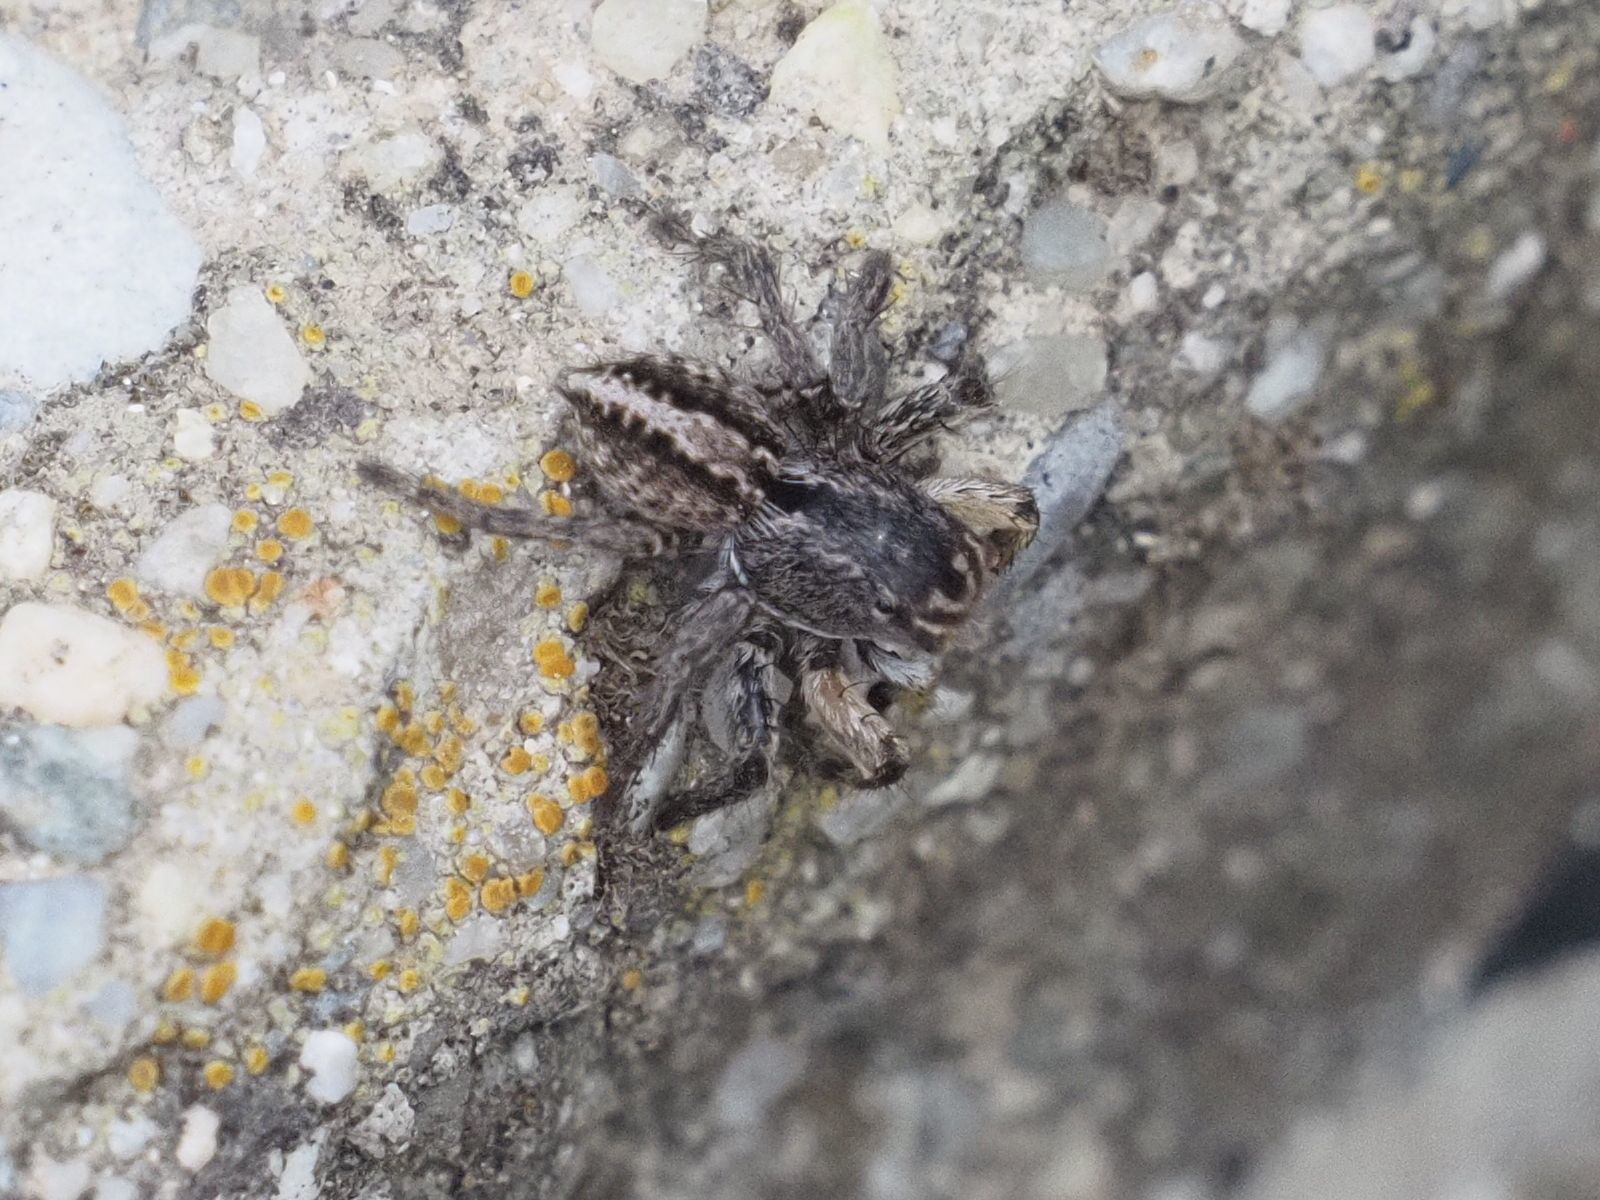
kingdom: Animalia
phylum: Arthropoda
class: Arachnida
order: Araneae
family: Salticidae
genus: Aelurillus
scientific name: Aelurillus v-insignitus
